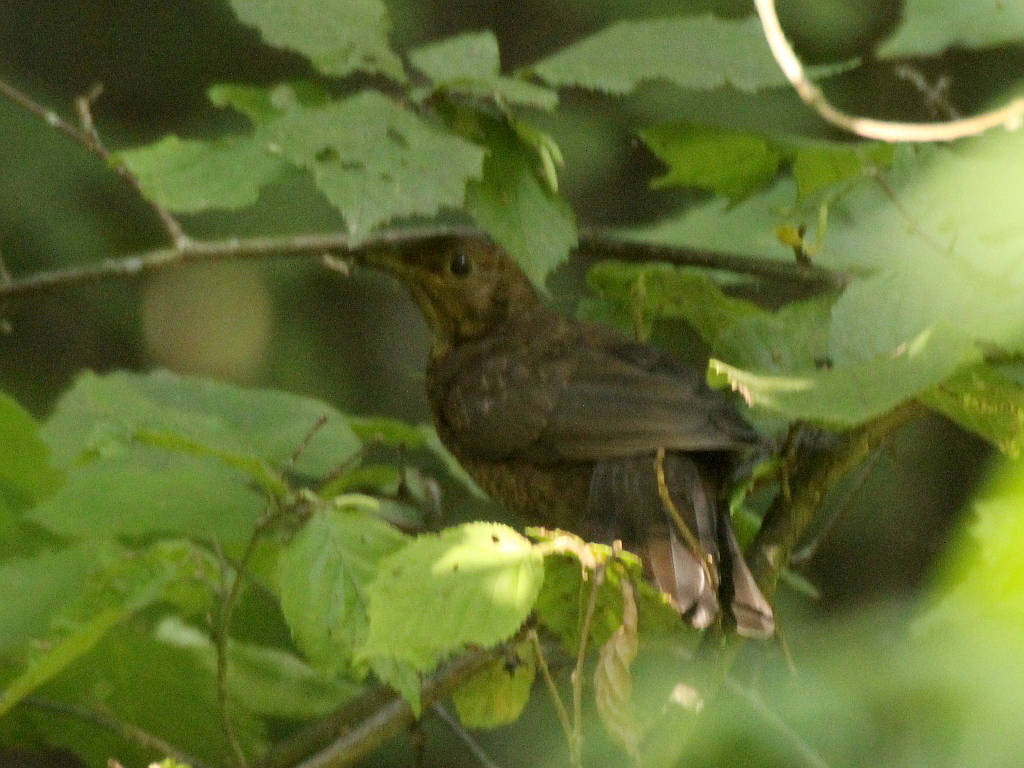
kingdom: Animalia
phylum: Chordata
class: Aves
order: Passeriformes
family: Turdidae
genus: Turdus
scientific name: Turdus merula
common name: Common blackbird
